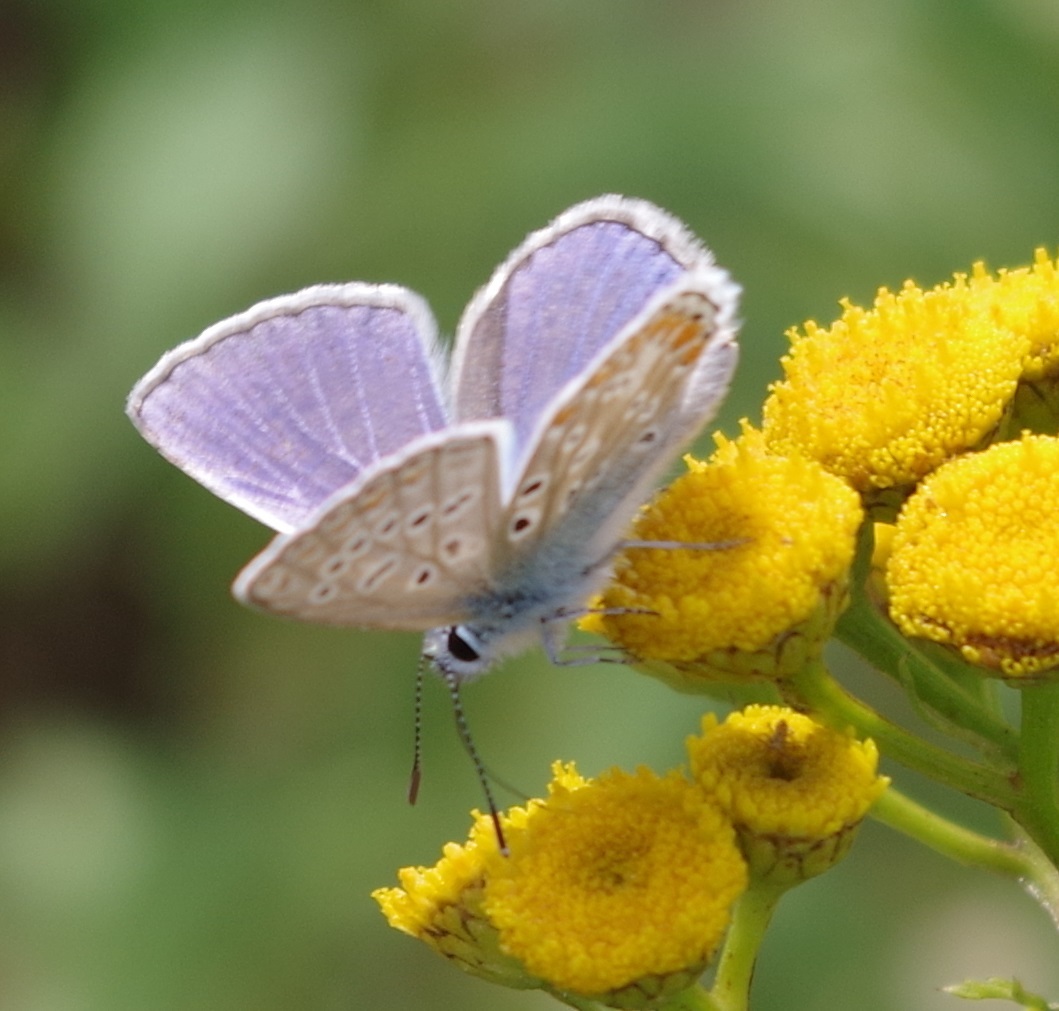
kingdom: Animalia
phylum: Arthropoda
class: Insecta
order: Lepidoptera
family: Lycaenidae
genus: Polyommatus
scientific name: Polyommatus icarus
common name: Common blue
